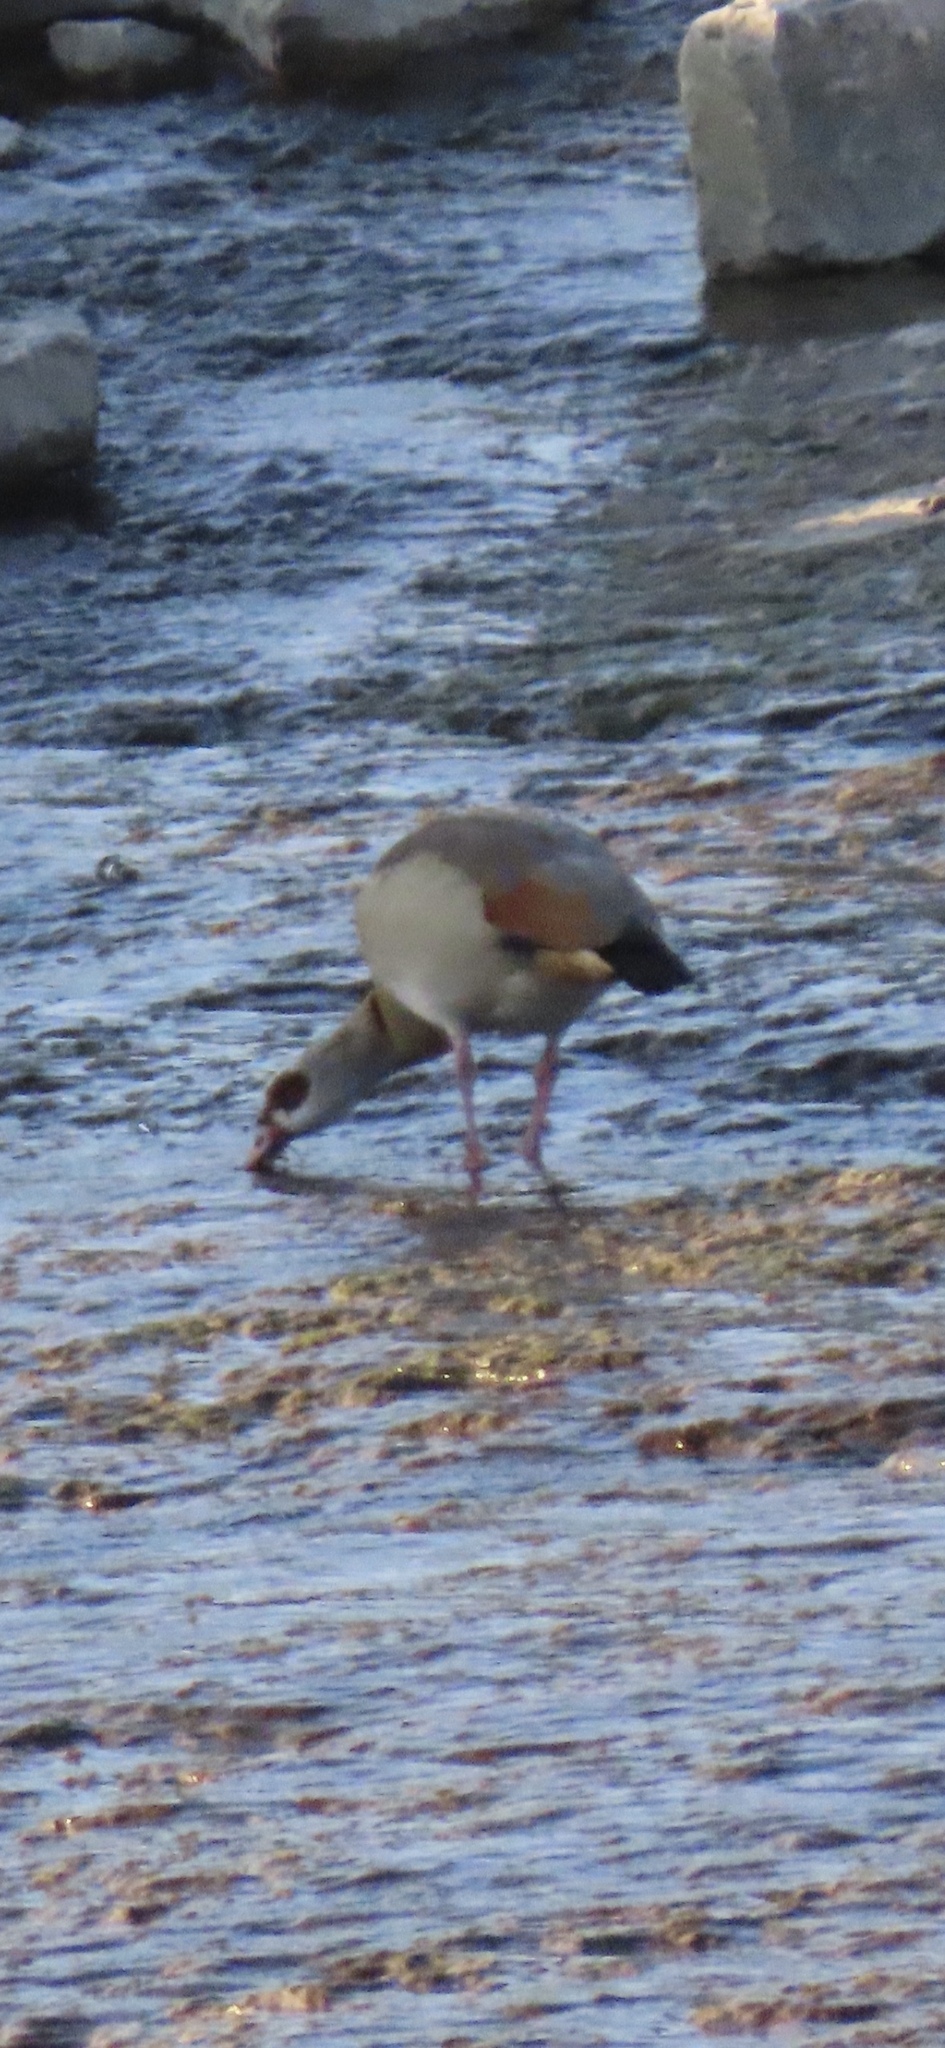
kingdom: Animalia
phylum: Chordata
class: Aves
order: Anseriformes
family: Anatidae
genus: Alopochen
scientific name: Alopochen aegyptiaca
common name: Egyptian goose
